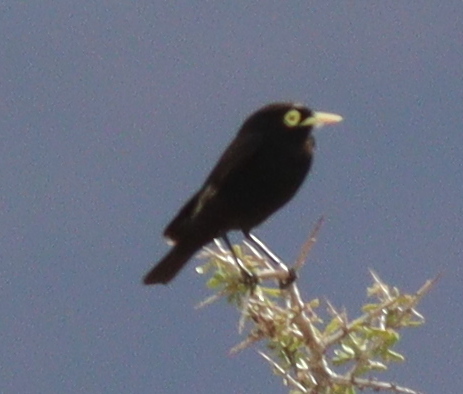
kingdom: Animalia
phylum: Chordata
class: Aves
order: Passeriformes
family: Tyrannidae
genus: Hymenops
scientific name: Hymenops perspicillatus
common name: Spectacled tyrant
